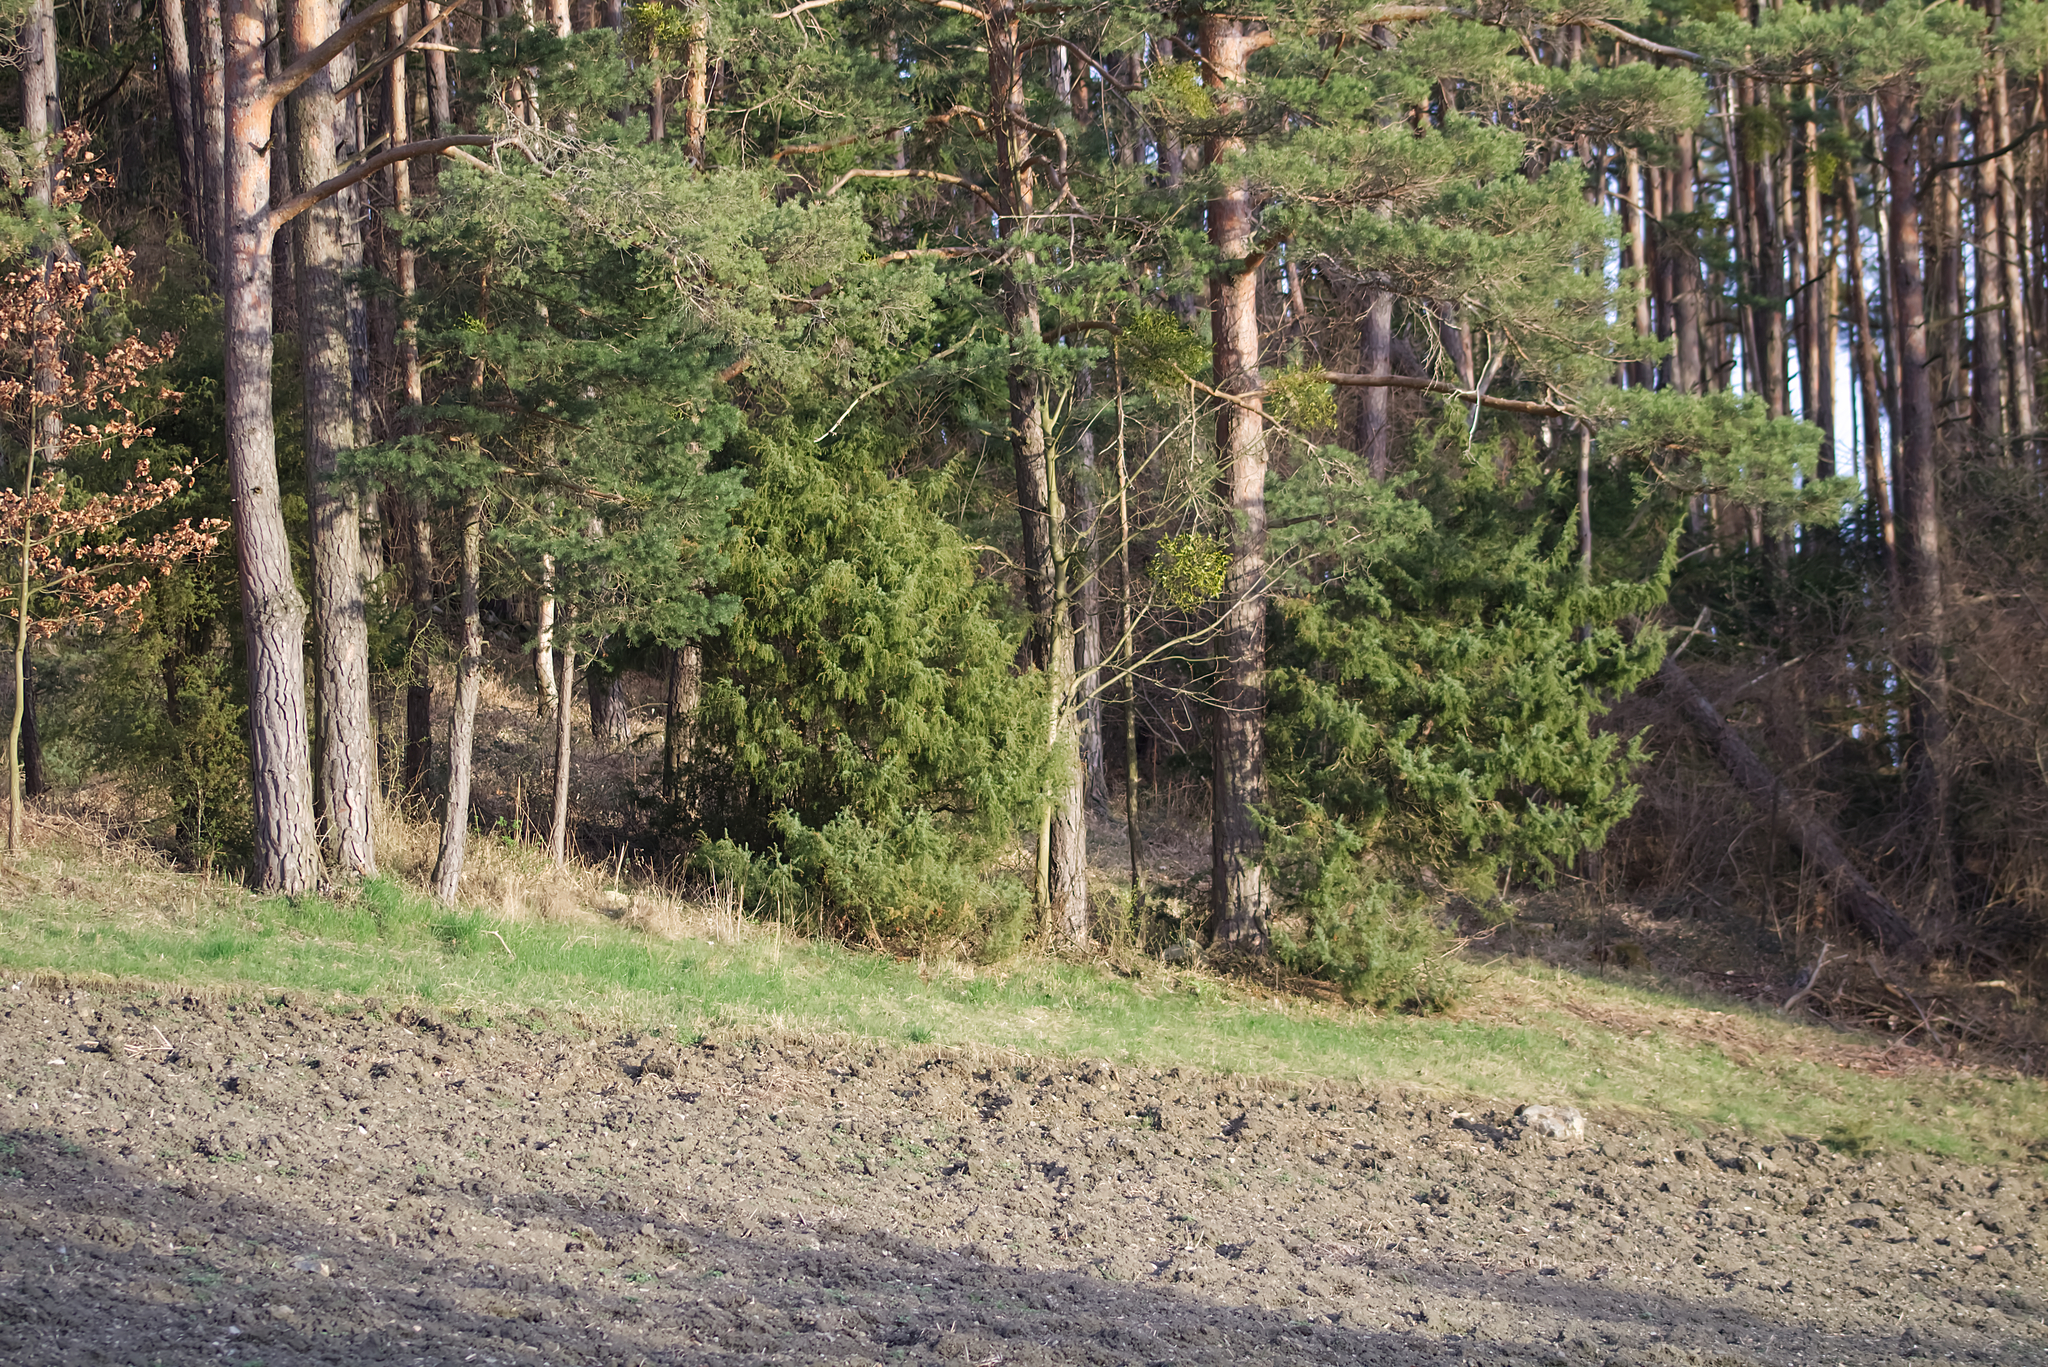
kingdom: Plantae
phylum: Tracheophyta
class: Pinopsida
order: Pinales
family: Cupressaceae
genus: Juniperus
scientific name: Juniperus communis
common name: Common juniper
